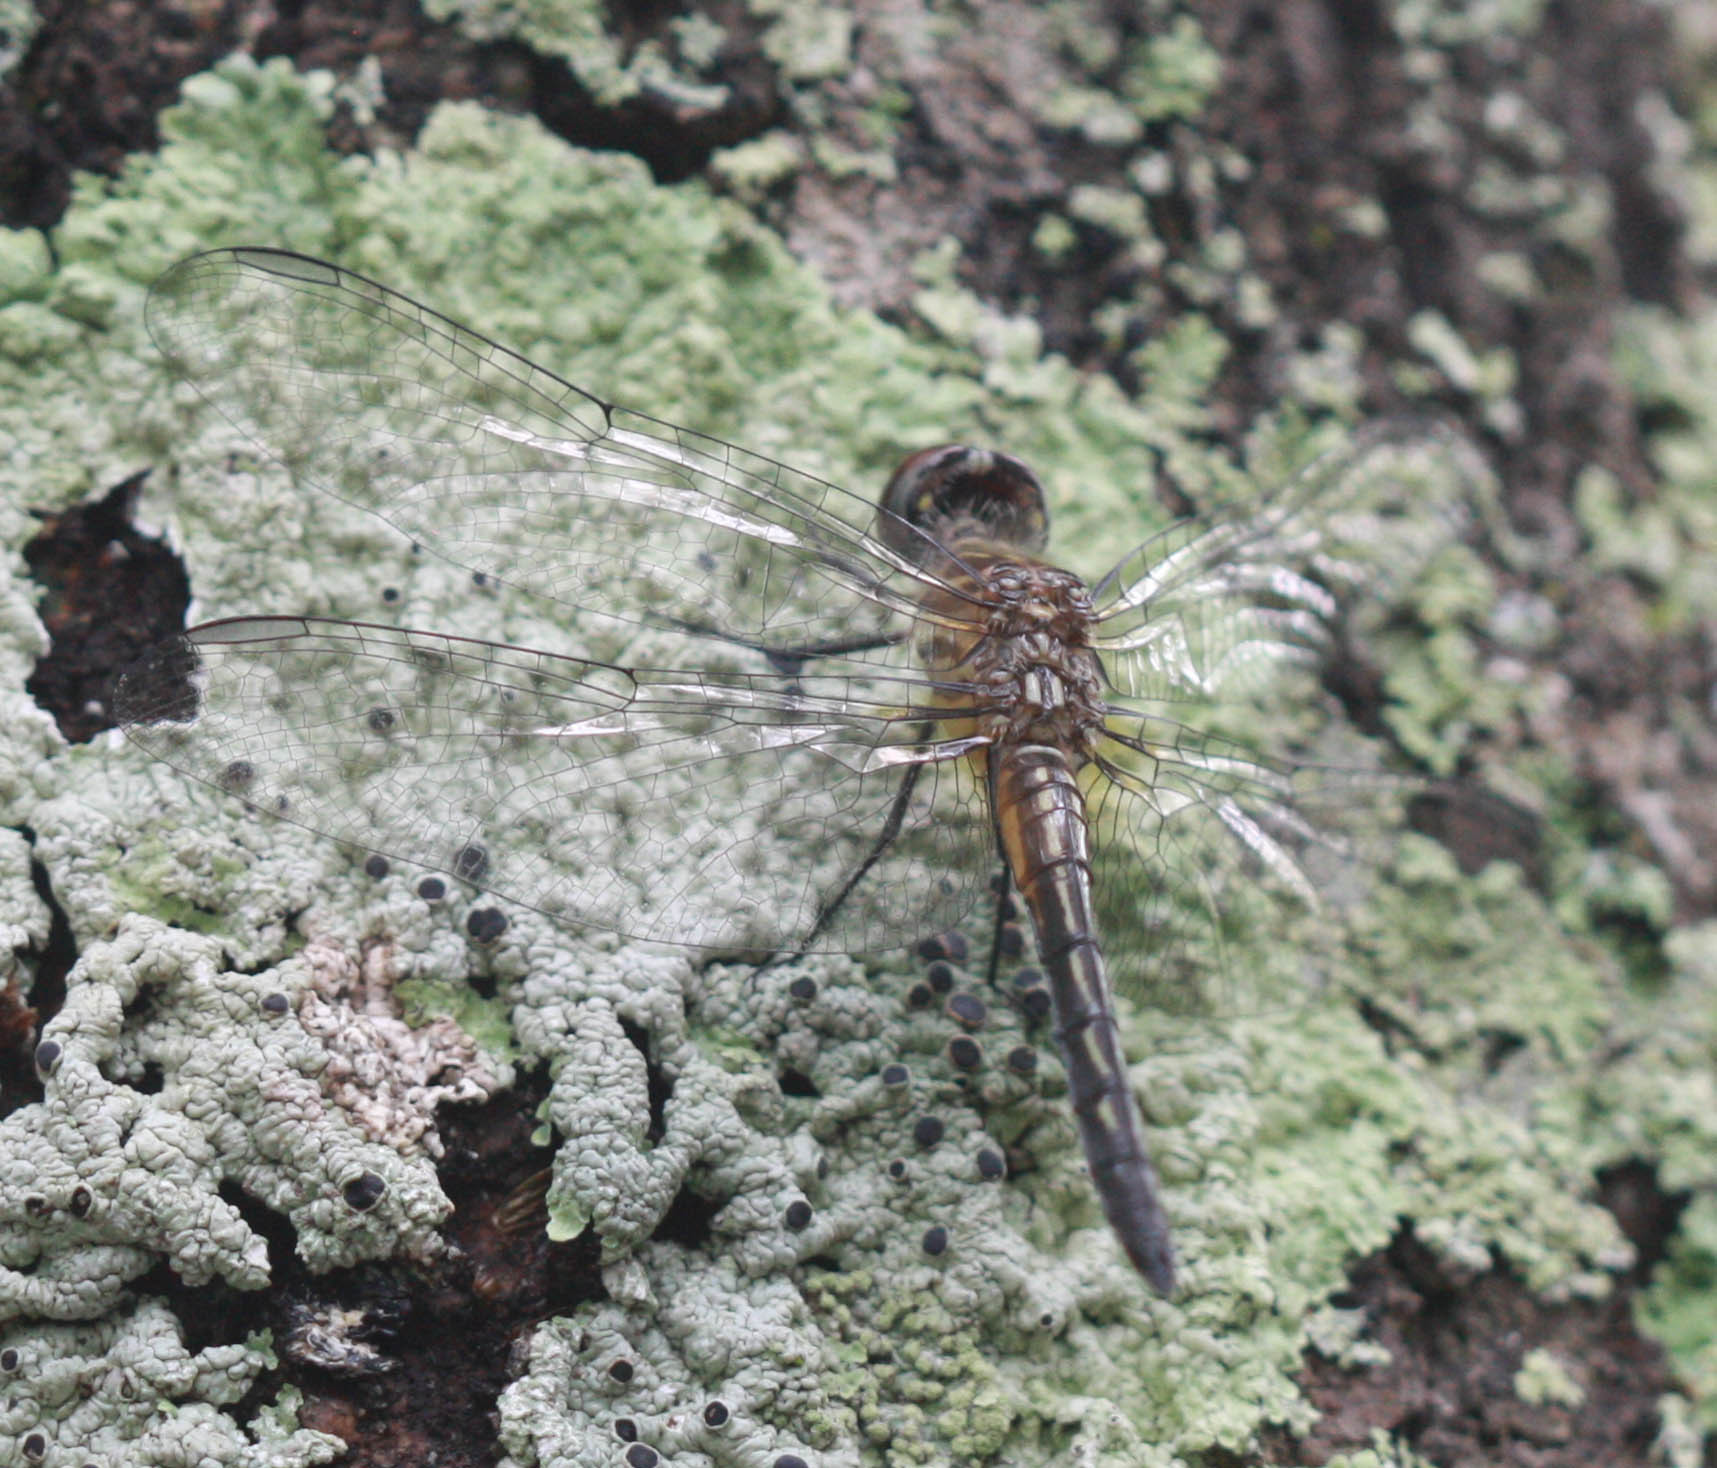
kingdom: Animalia
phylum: Arthropoda
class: Insecta
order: Odonata
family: Libellulidae
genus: Pachydiplax
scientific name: Pachydiplax longipennis
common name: Blue dasher
